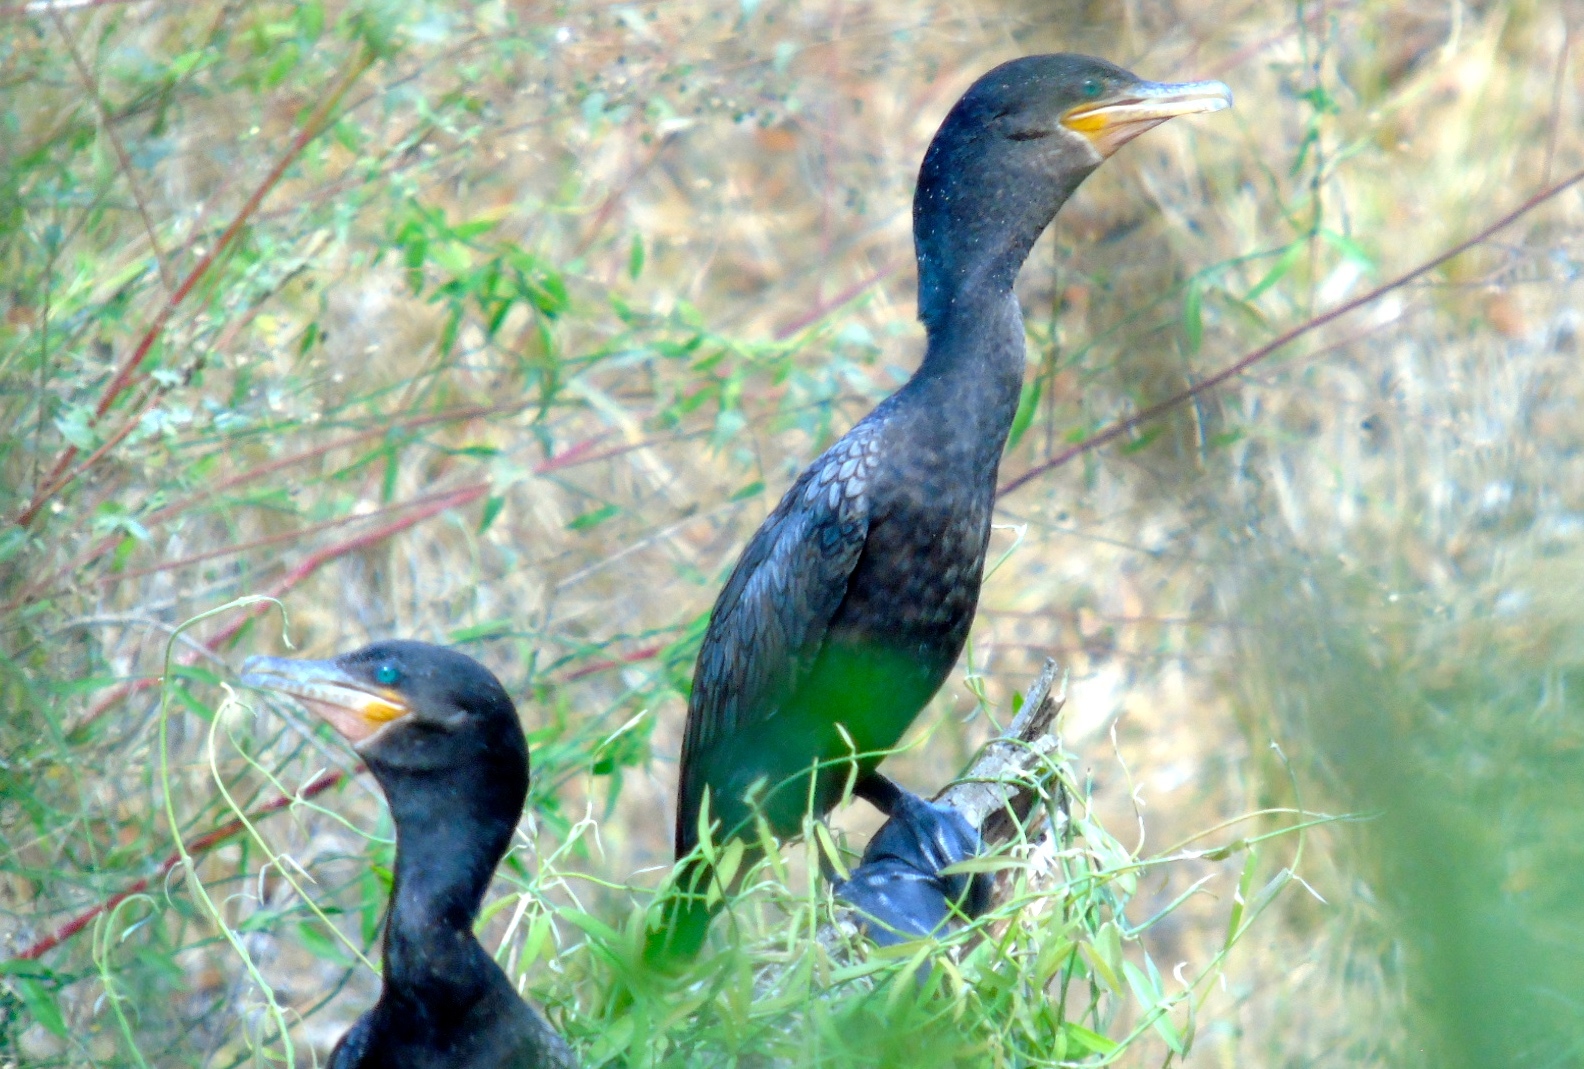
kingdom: Animalia
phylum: Chordata
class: Aves
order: Suliformes
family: Phalacrocoracidae
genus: Phalacrocorax
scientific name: Phalacrocorax brasilianus
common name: Neotropic cormorant
